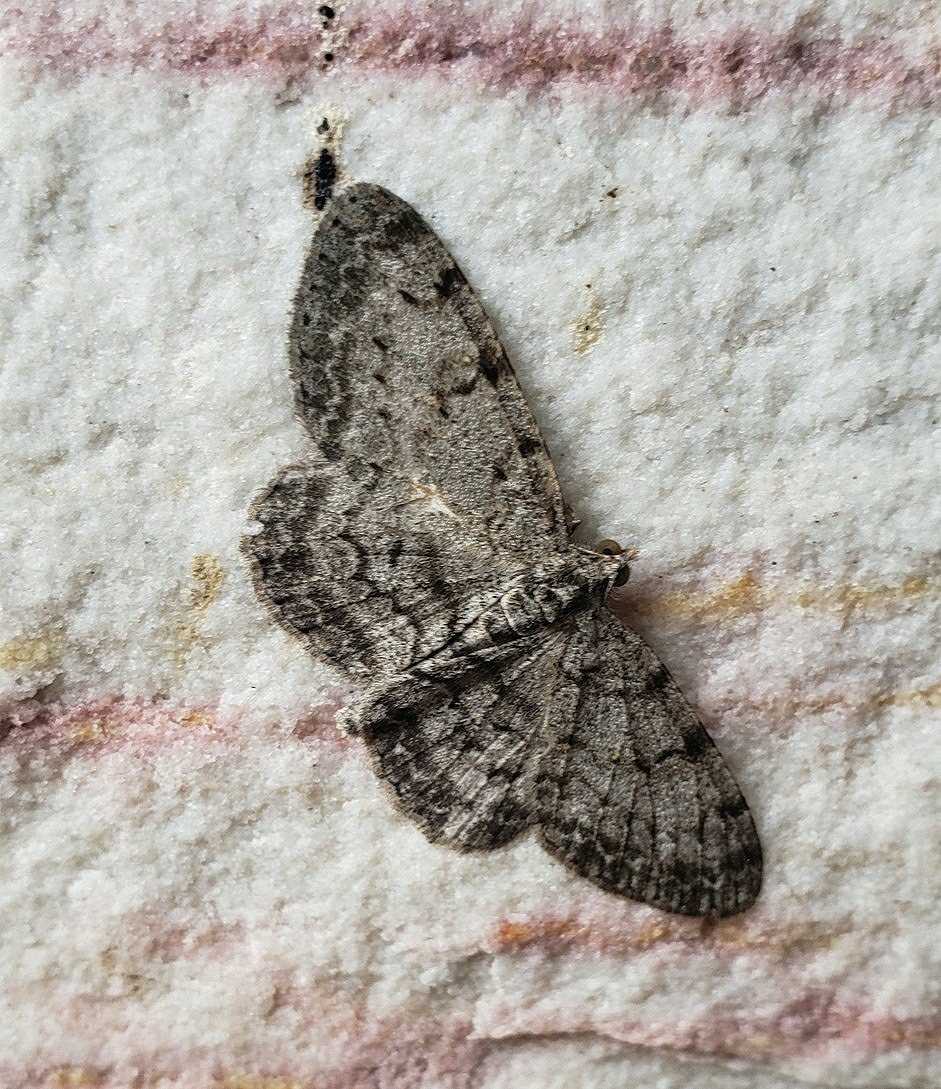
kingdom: Animalia
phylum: Arthropoda
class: Insecta
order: Lepidoptera
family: Geometridae
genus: Protoboarmia
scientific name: Protoboarmia porcelaria
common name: Porcelain gray
